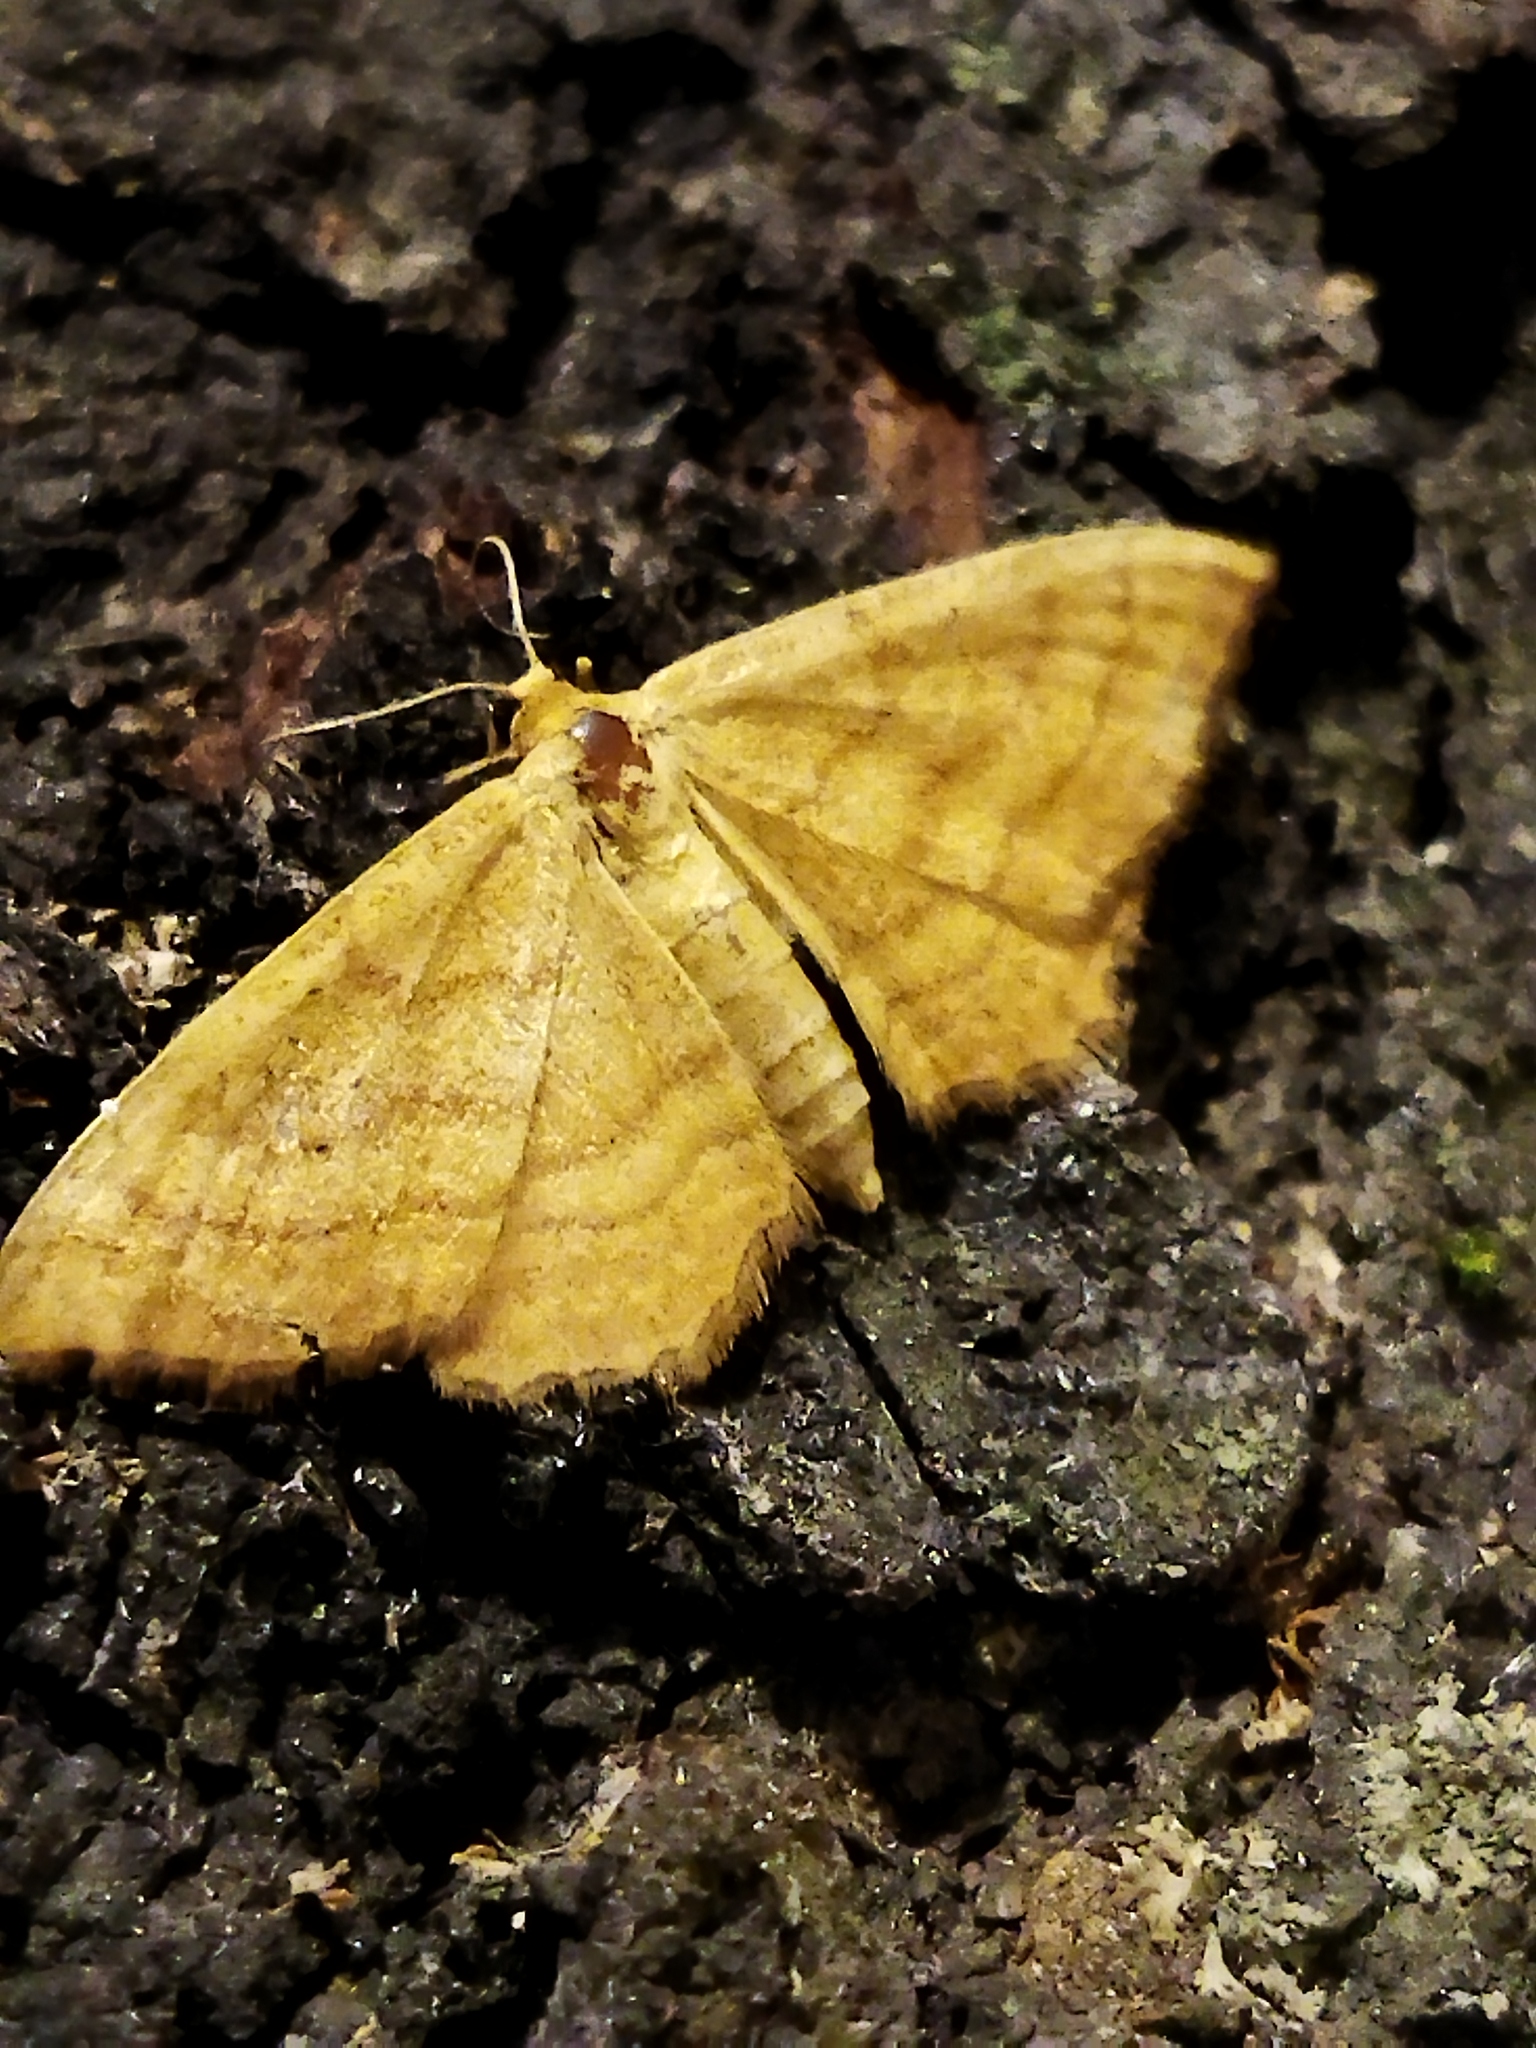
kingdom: Animalia
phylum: Arthropoda
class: Insecta
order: Lepidoptera
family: Geometridae
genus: Idaea
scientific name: Idaea ochrata
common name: Bright wave
